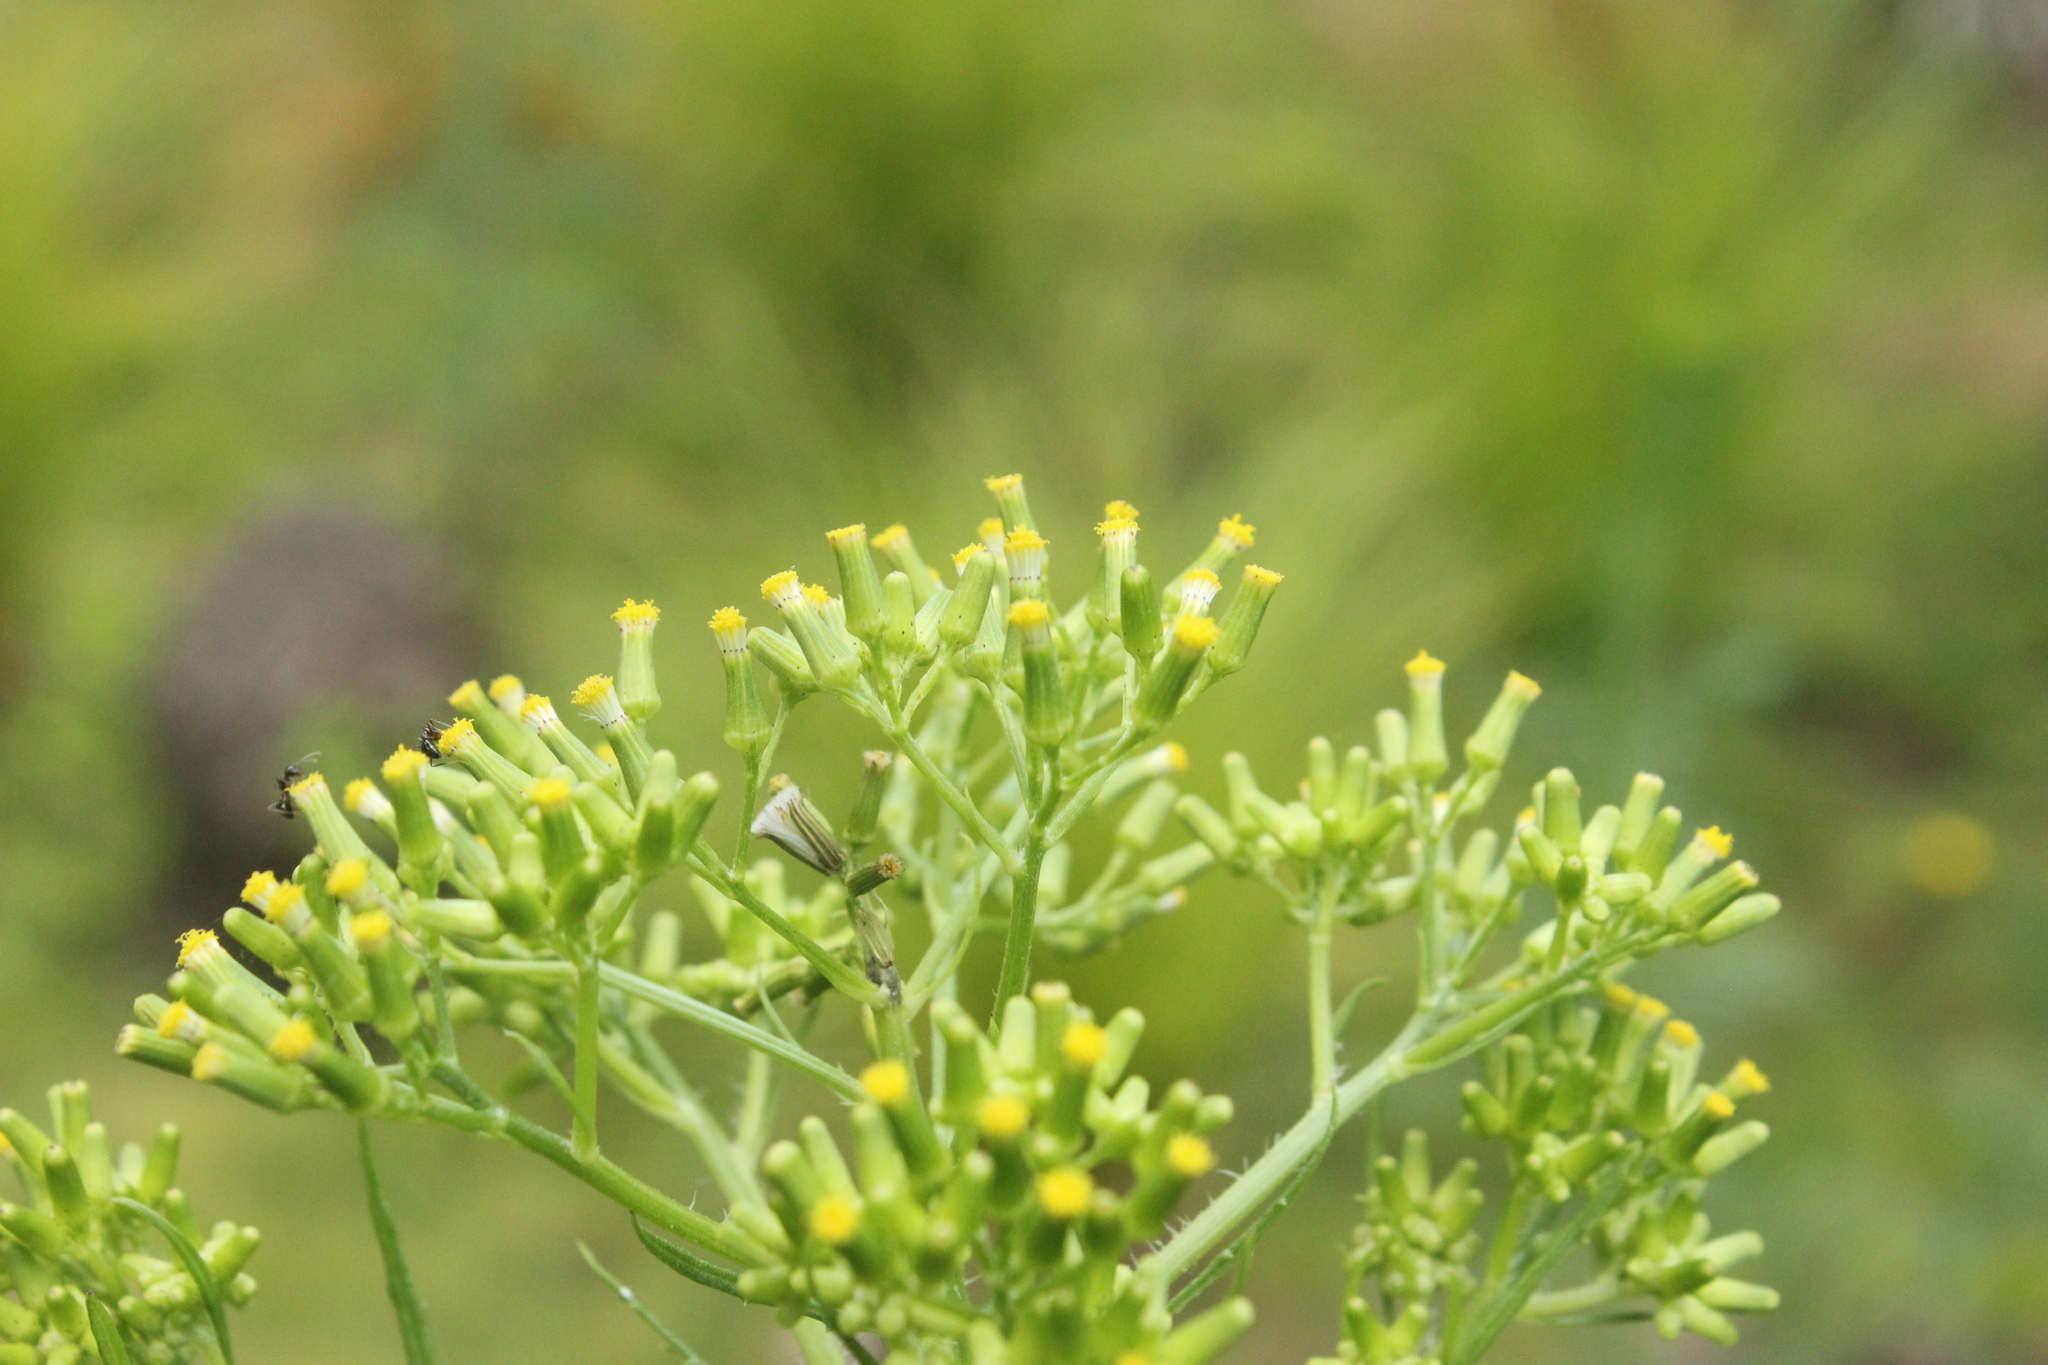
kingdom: Plantae
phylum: Tracheophyta
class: Magnoliopsida
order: Asterales
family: Asteraceae
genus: Senecio
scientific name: Senecio esleri
